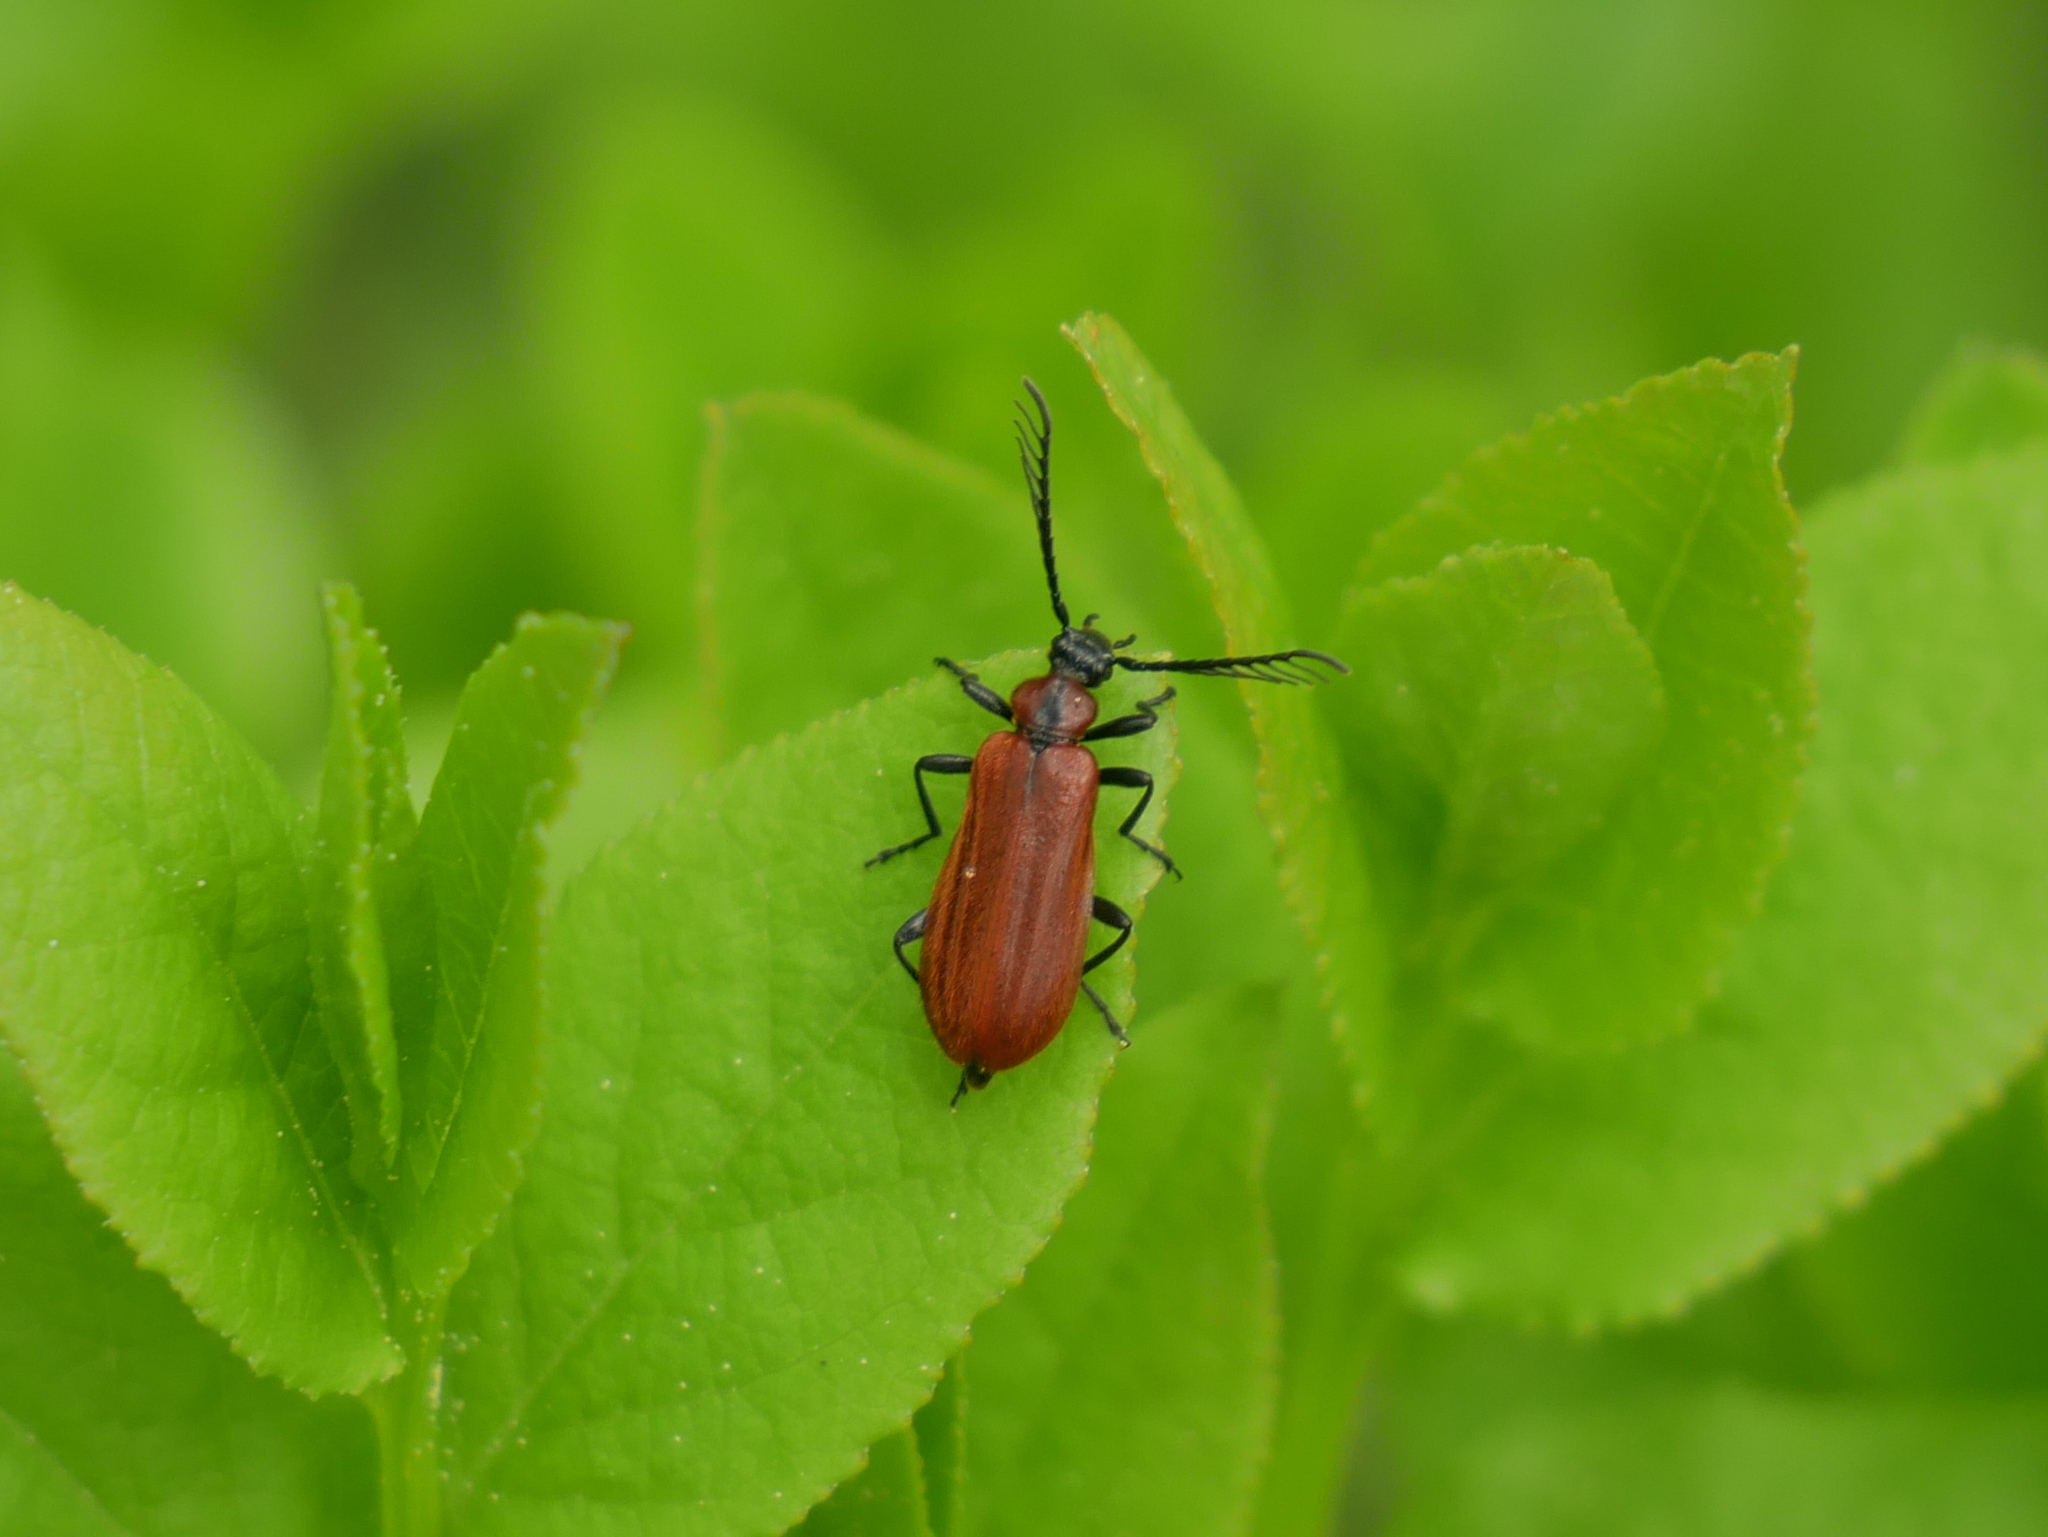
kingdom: Animalia
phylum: Arthropoda
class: Insecta
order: Coleoptera
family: Pyrochroidae
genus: Schizotus
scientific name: Schizotus pectinicornis
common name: Scarce cardinal beetle
